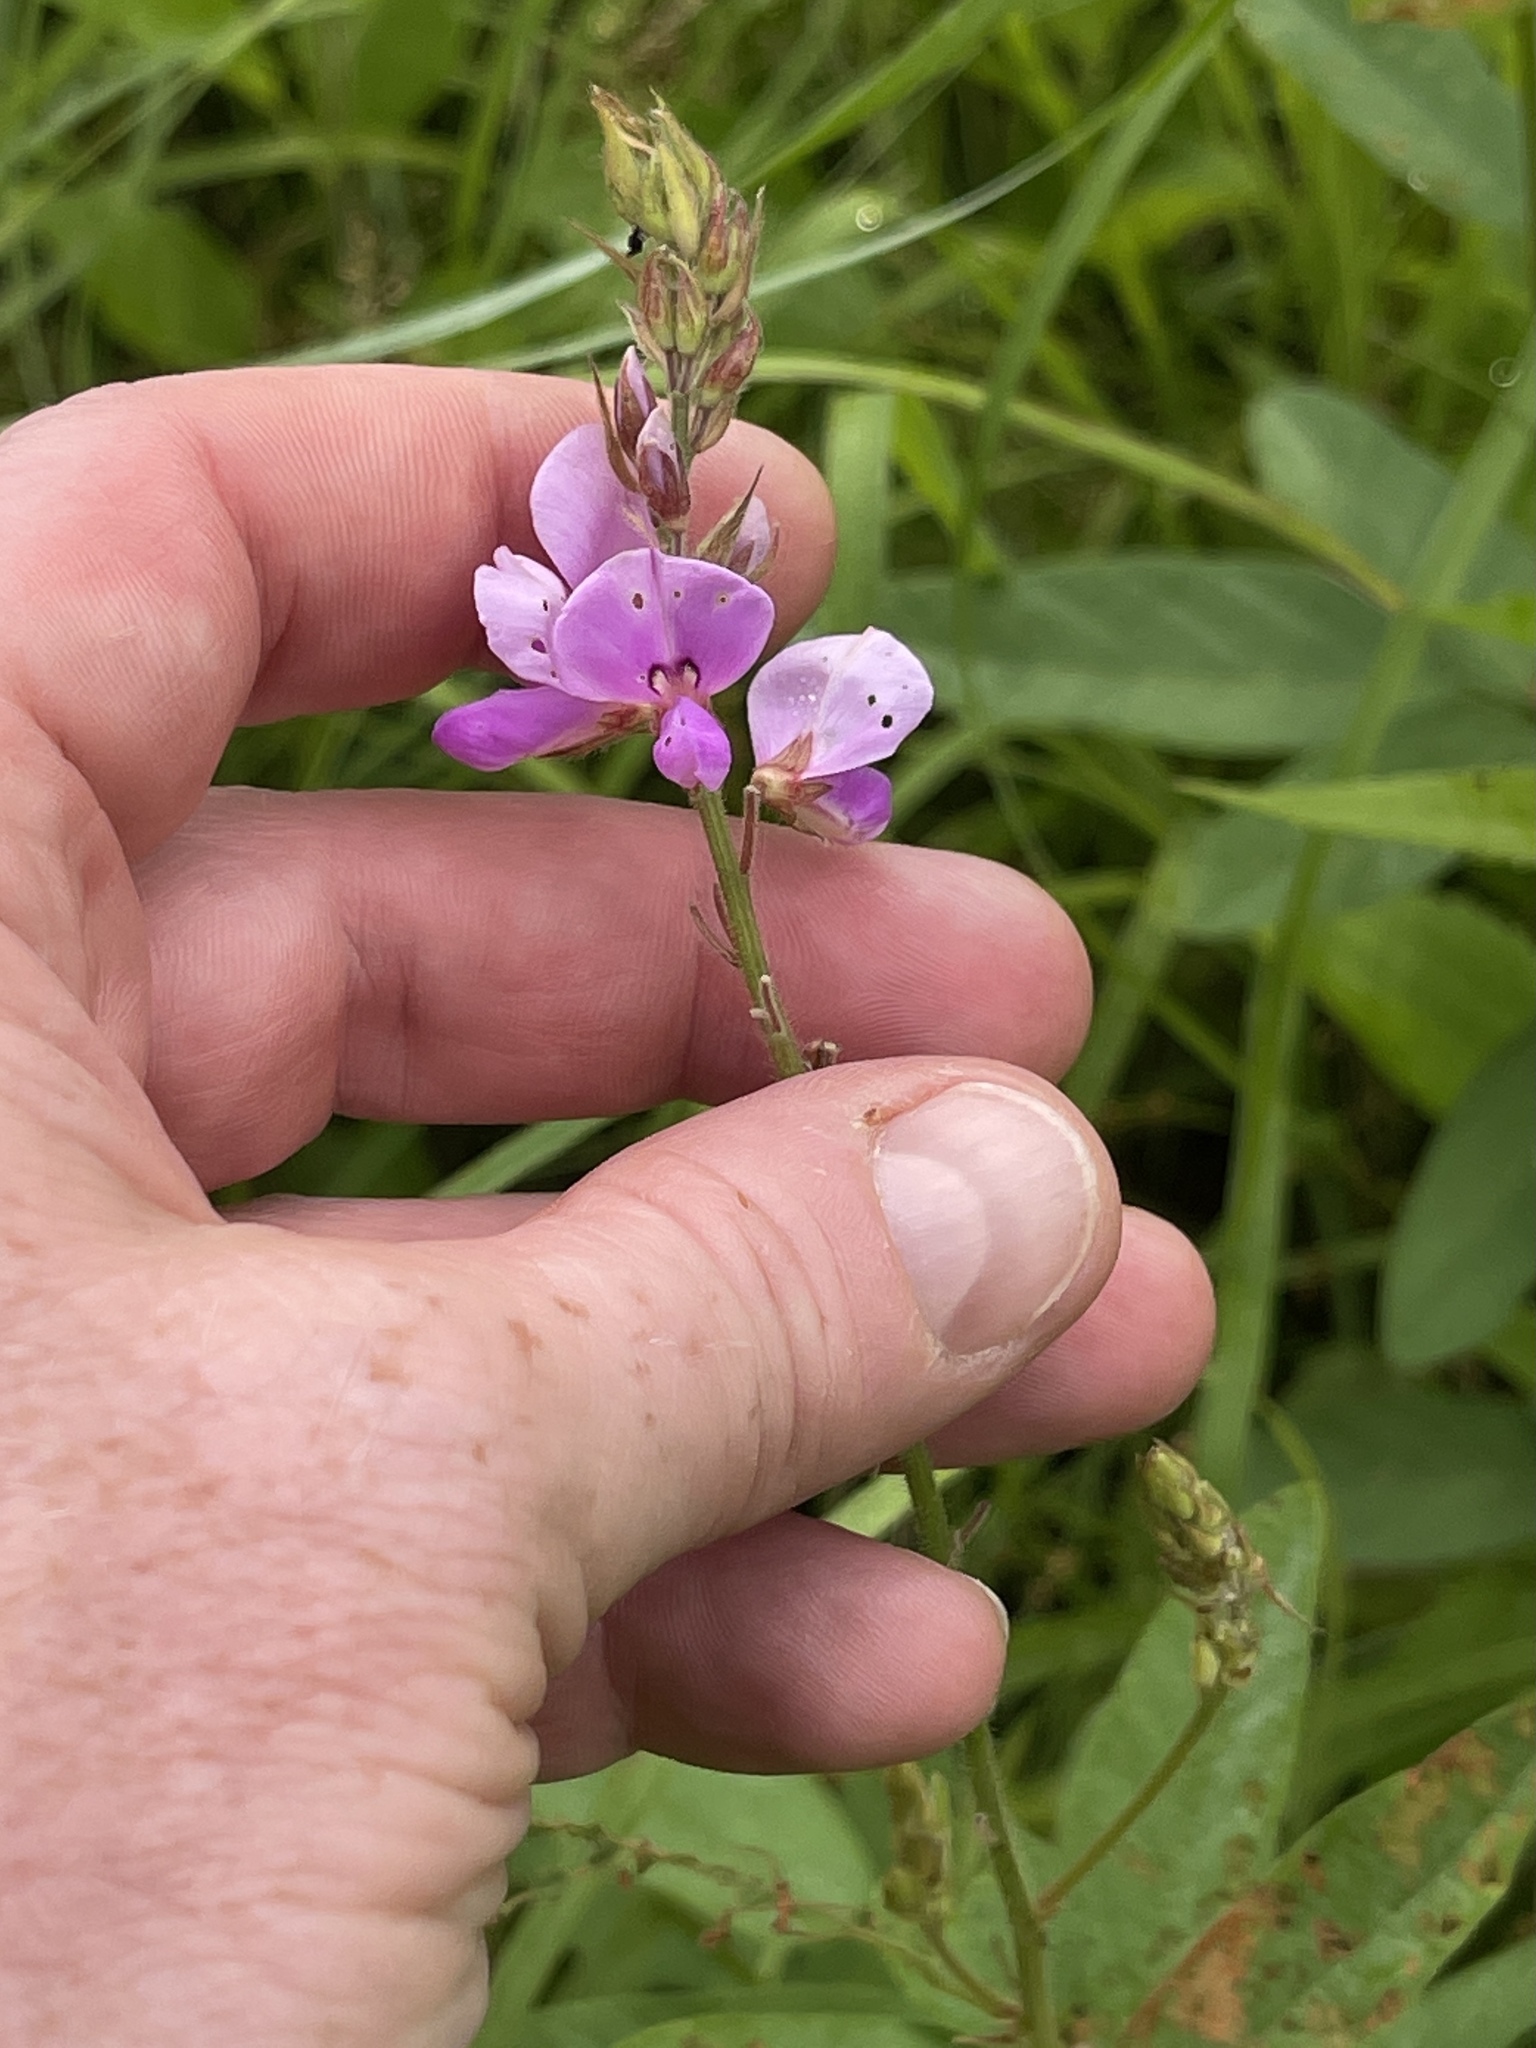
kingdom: Plantae
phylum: Tracheophyta
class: Magnoliopsida
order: Fabales
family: Fabaceae
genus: Desmodium
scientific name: Desmodium canadense
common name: Canada tick-trefoil
